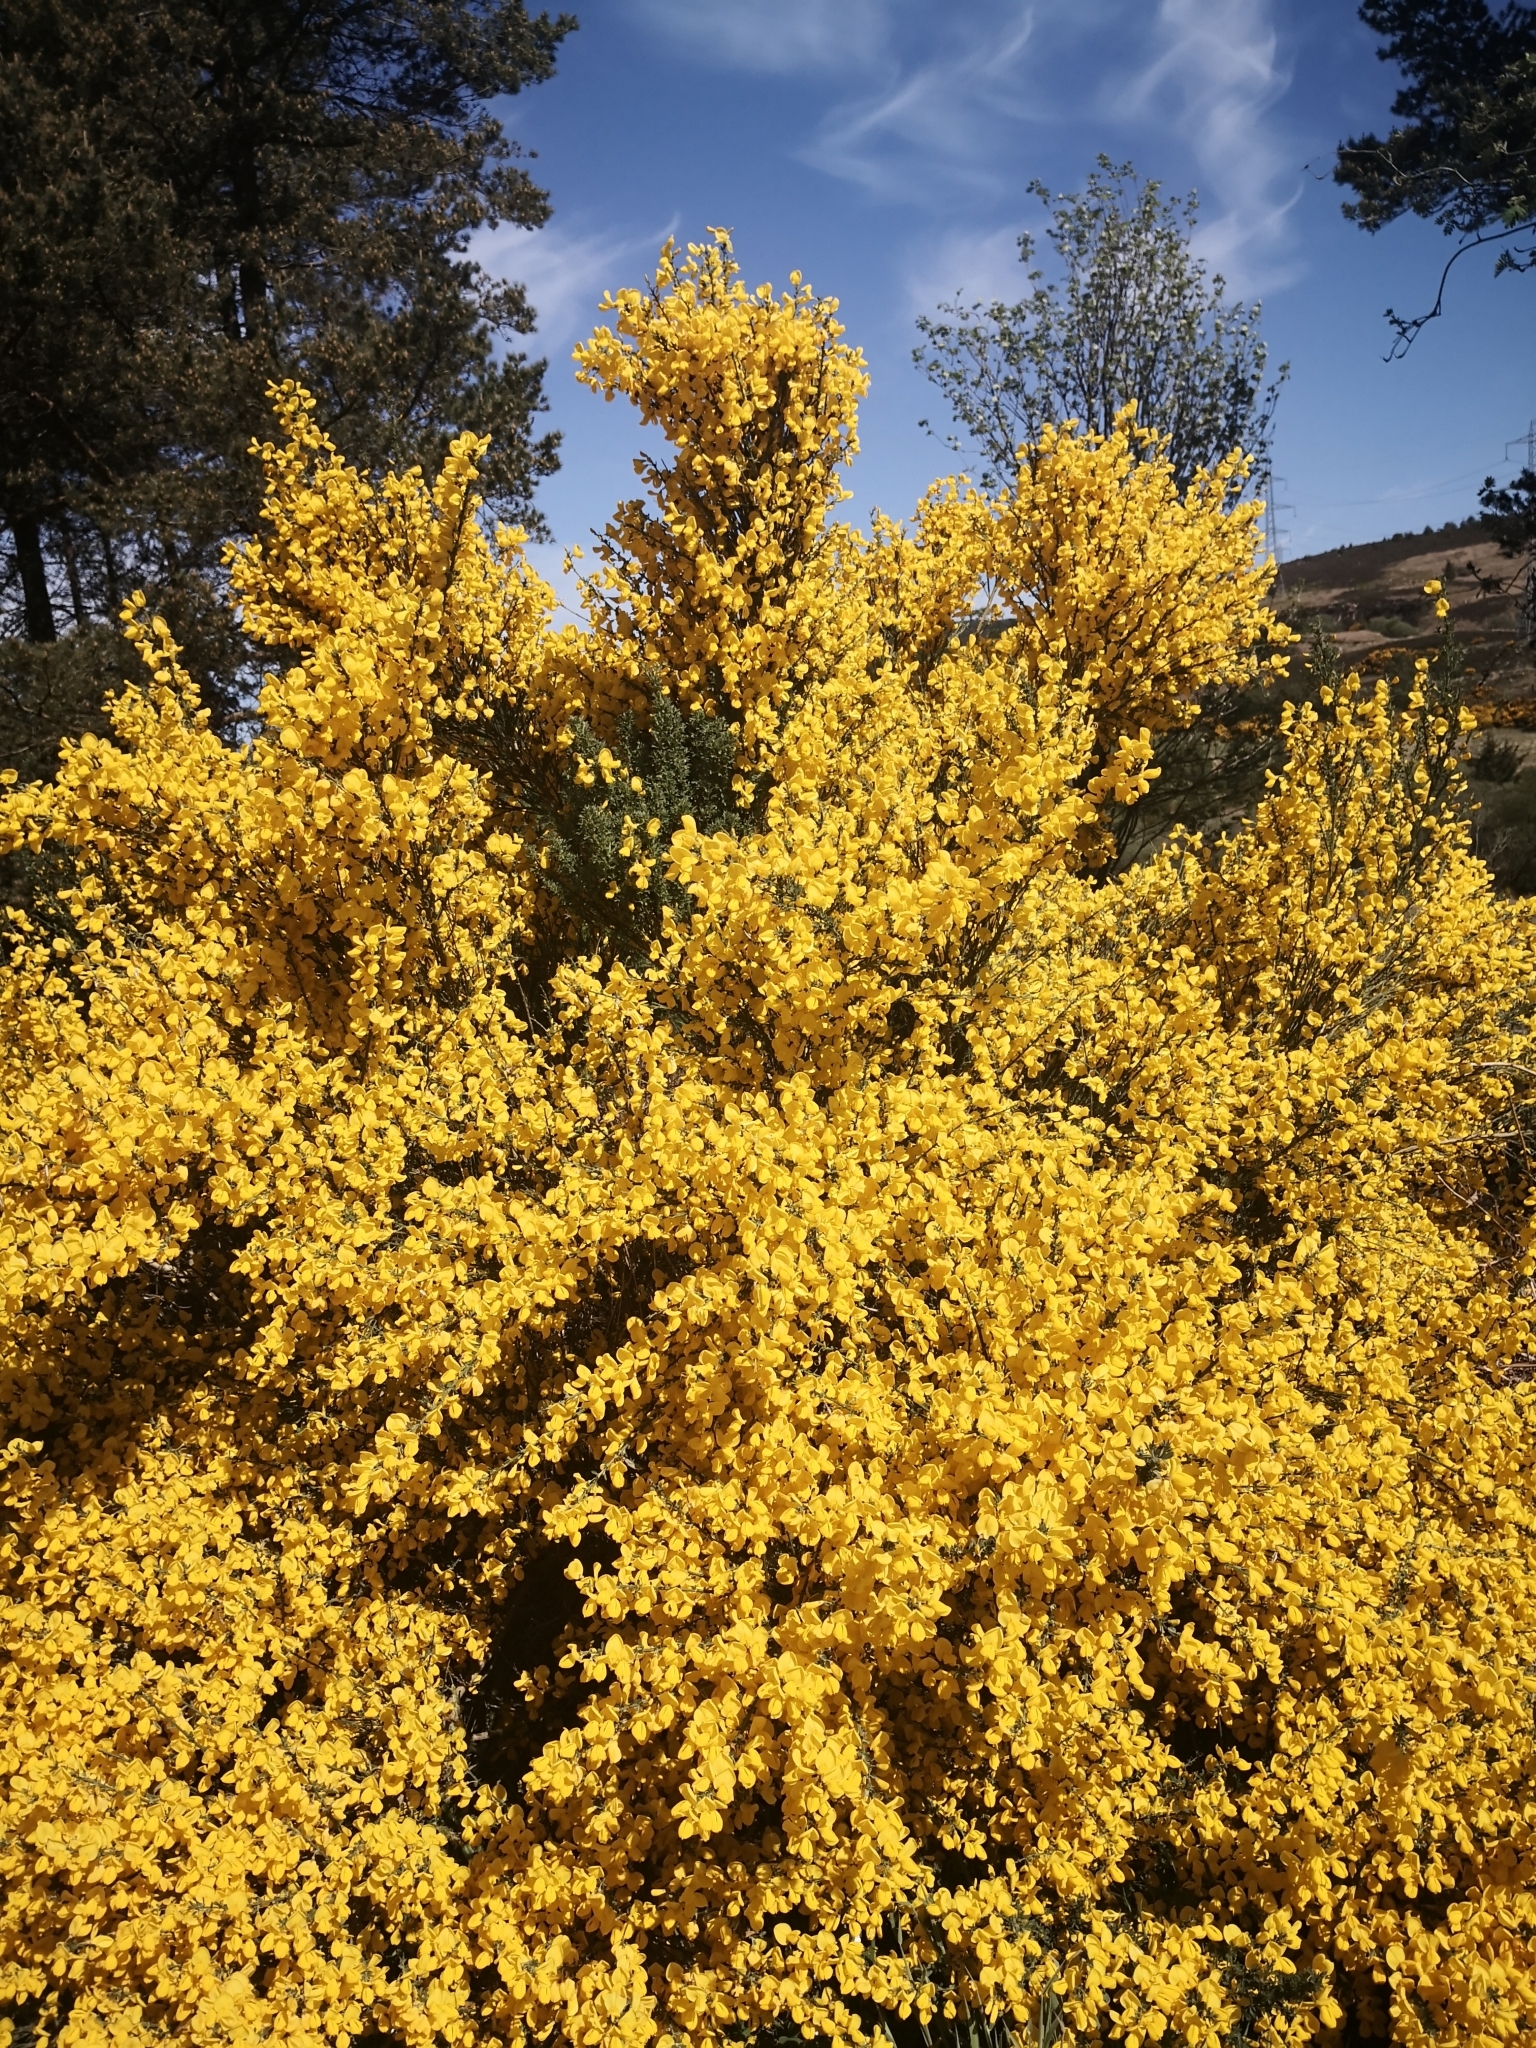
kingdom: Plantae
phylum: Tracheophyta
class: Magnoliopsida
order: Fabales
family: Fabaceae
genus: Cytisus
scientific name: Cytisus scoparius
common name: Scotch broom
